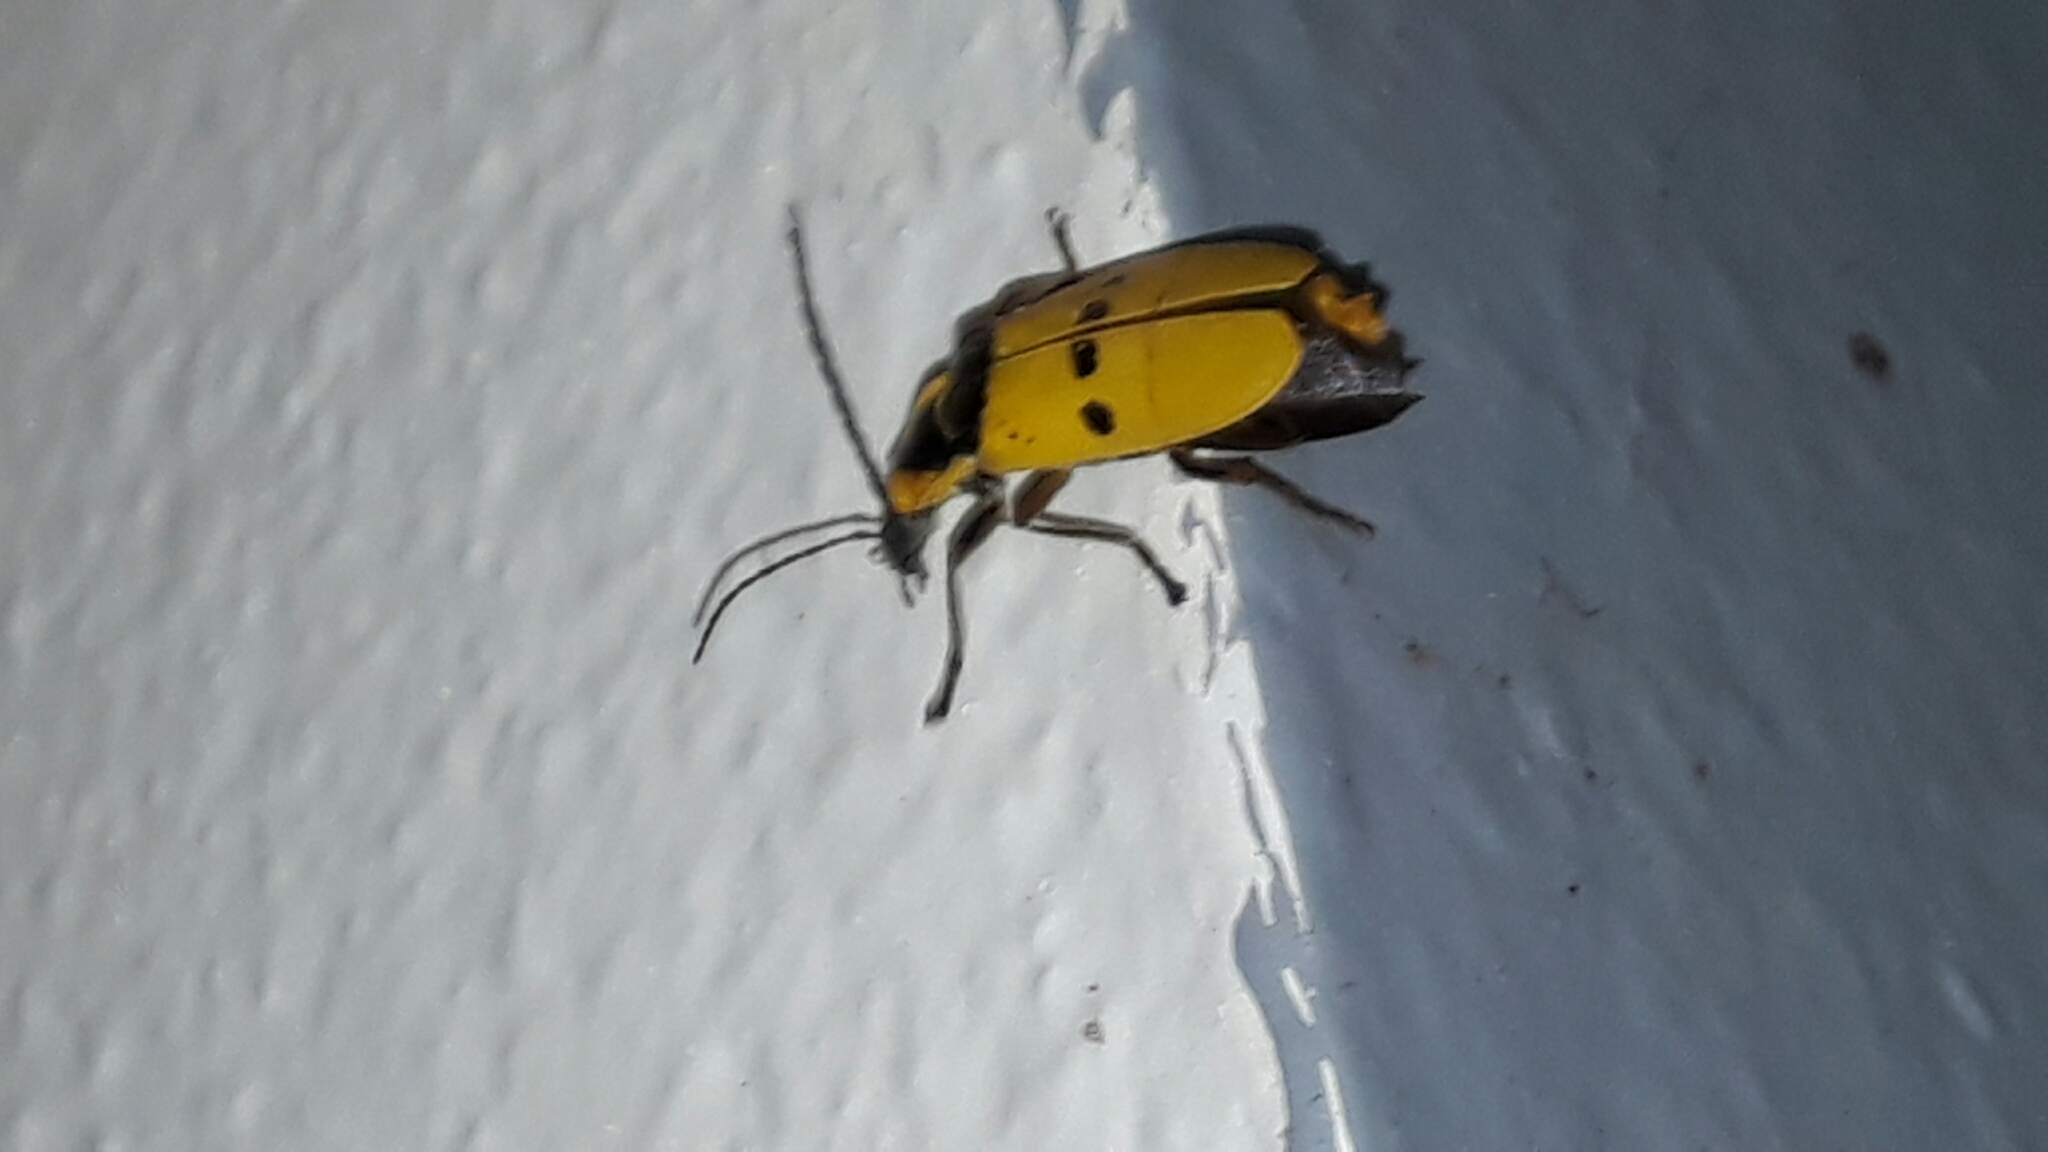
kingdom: Animalia
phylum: Arthropoda
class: Insecta
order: Coleoptera
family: Cantharidae
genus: Chauliognathus
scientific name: Chauliognathus
